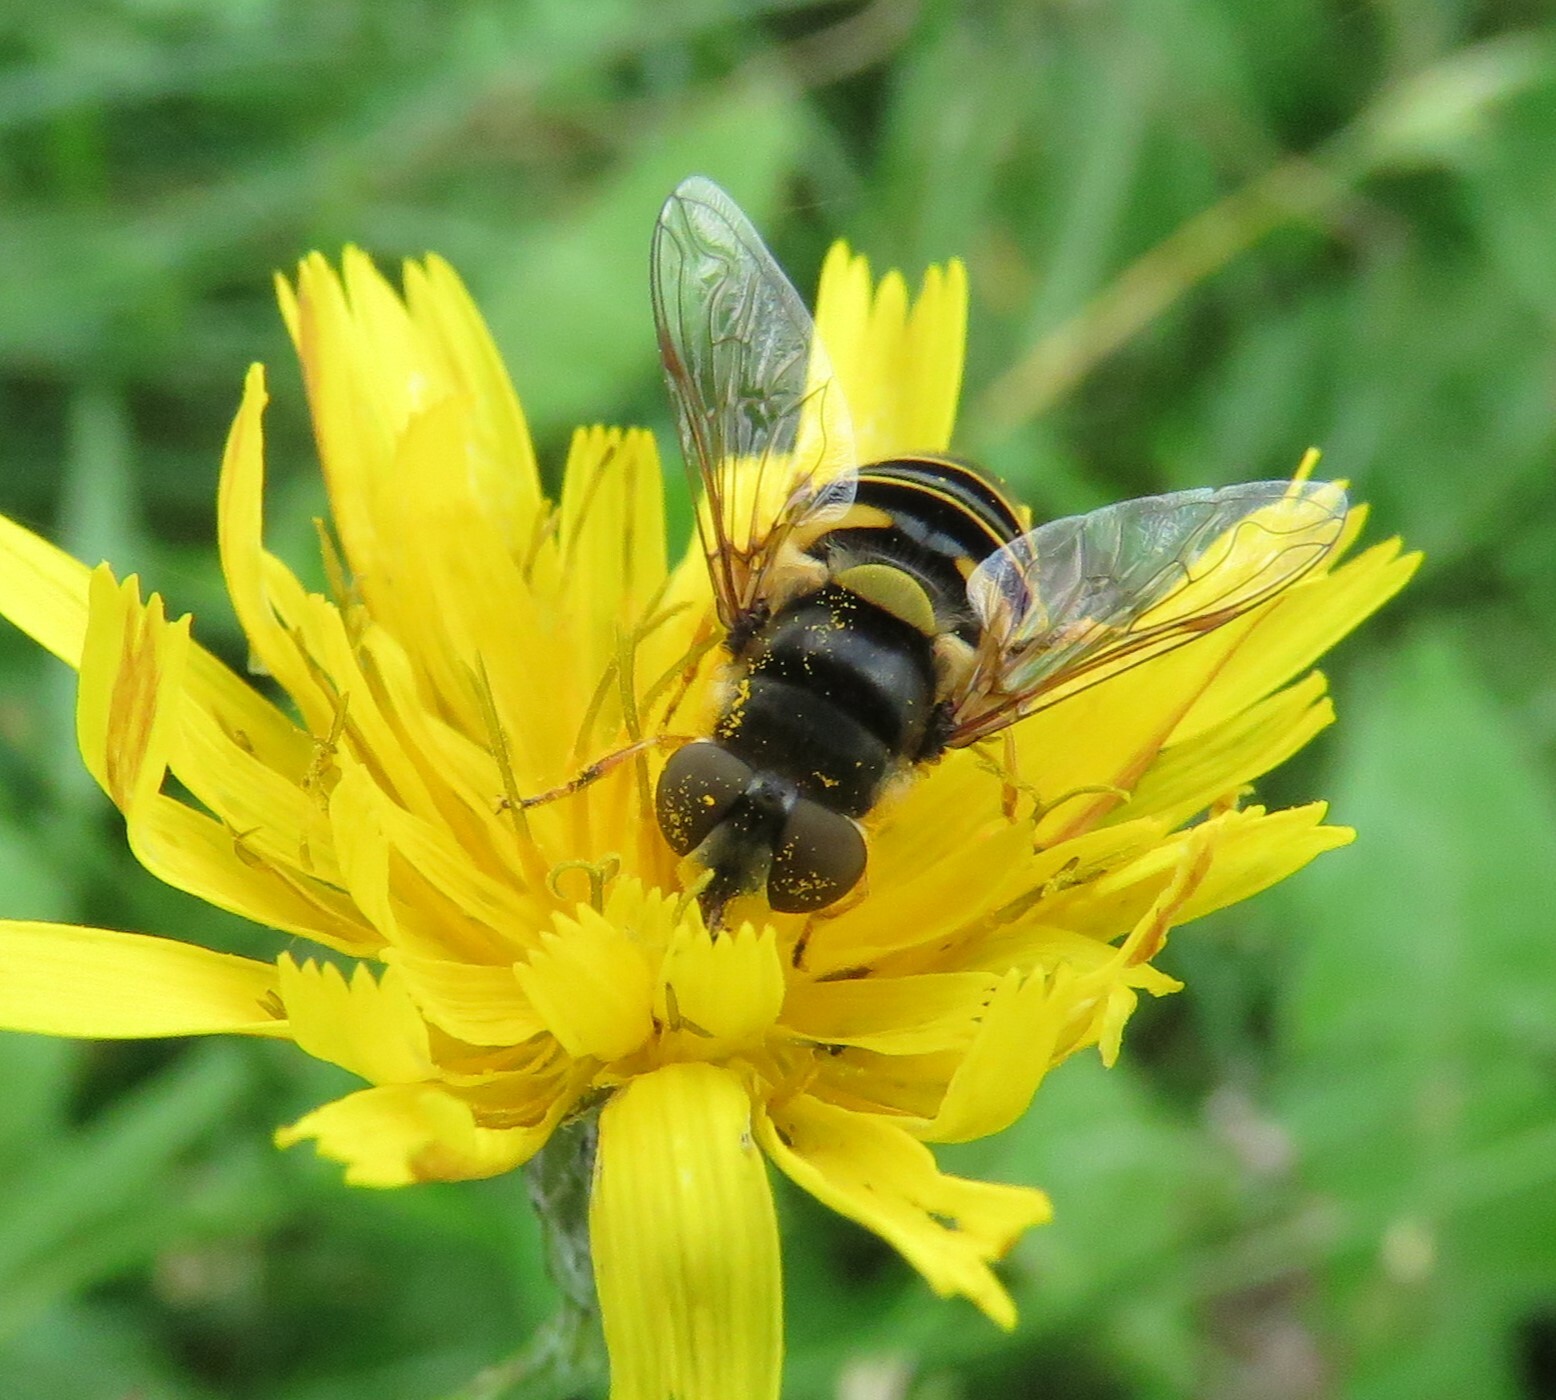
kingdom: Animalia
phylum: Arthropoda
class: Insecta
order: Diptera
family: Syrphidae
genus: Eristalis
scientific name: Eristalis transversa
